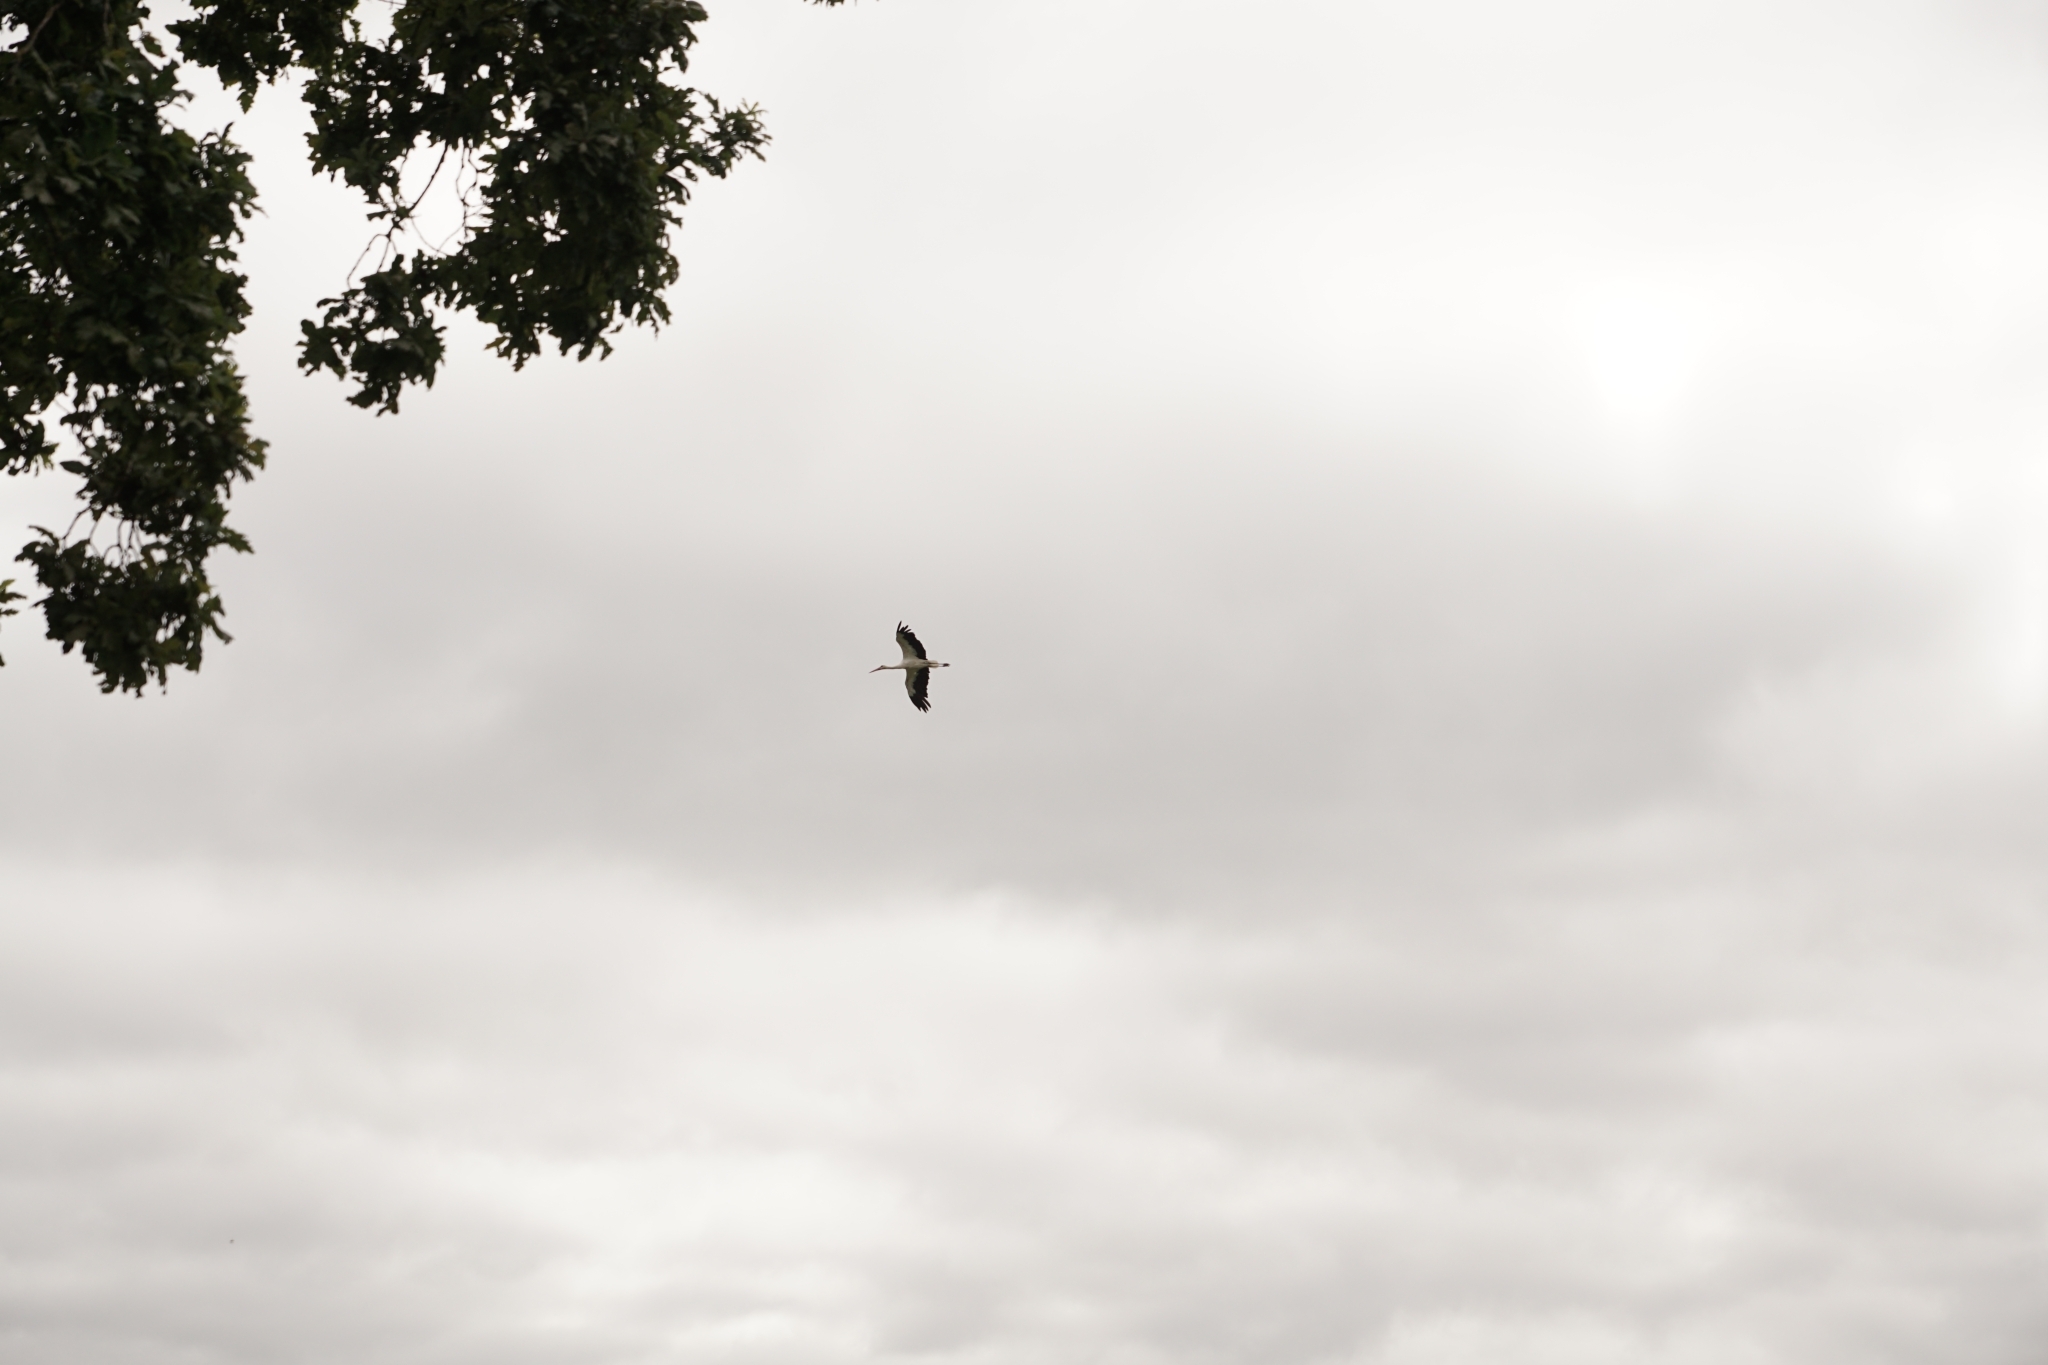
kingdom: Animalia
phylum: Chordata
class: Aves
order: Ciconiiformes
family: Ciconiidae
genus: Ciconia
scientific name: Ciconia ciconia
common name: White stork
